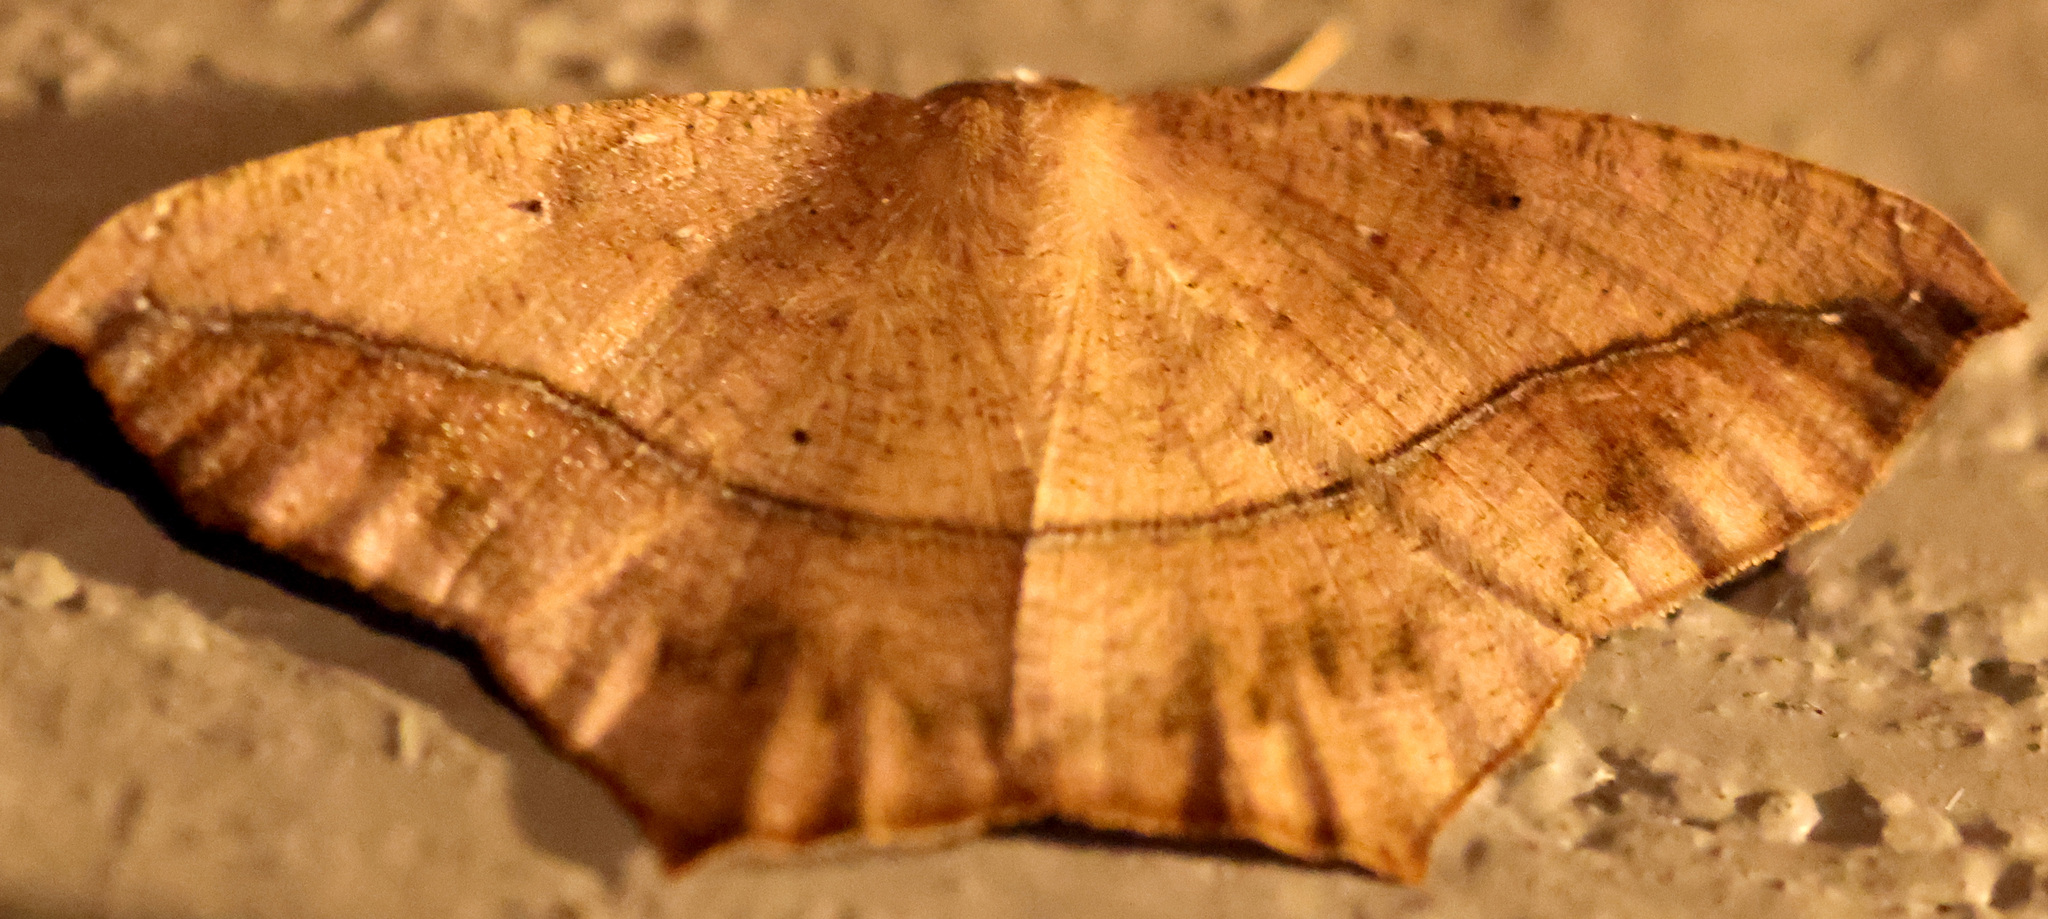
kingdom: Animalia
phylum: Arthropoda
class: Insecta
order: Lepidoptera
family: Geometridae
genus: Prochoerodes
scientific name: Prochoerodes lineola
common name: Large maple spanworm
